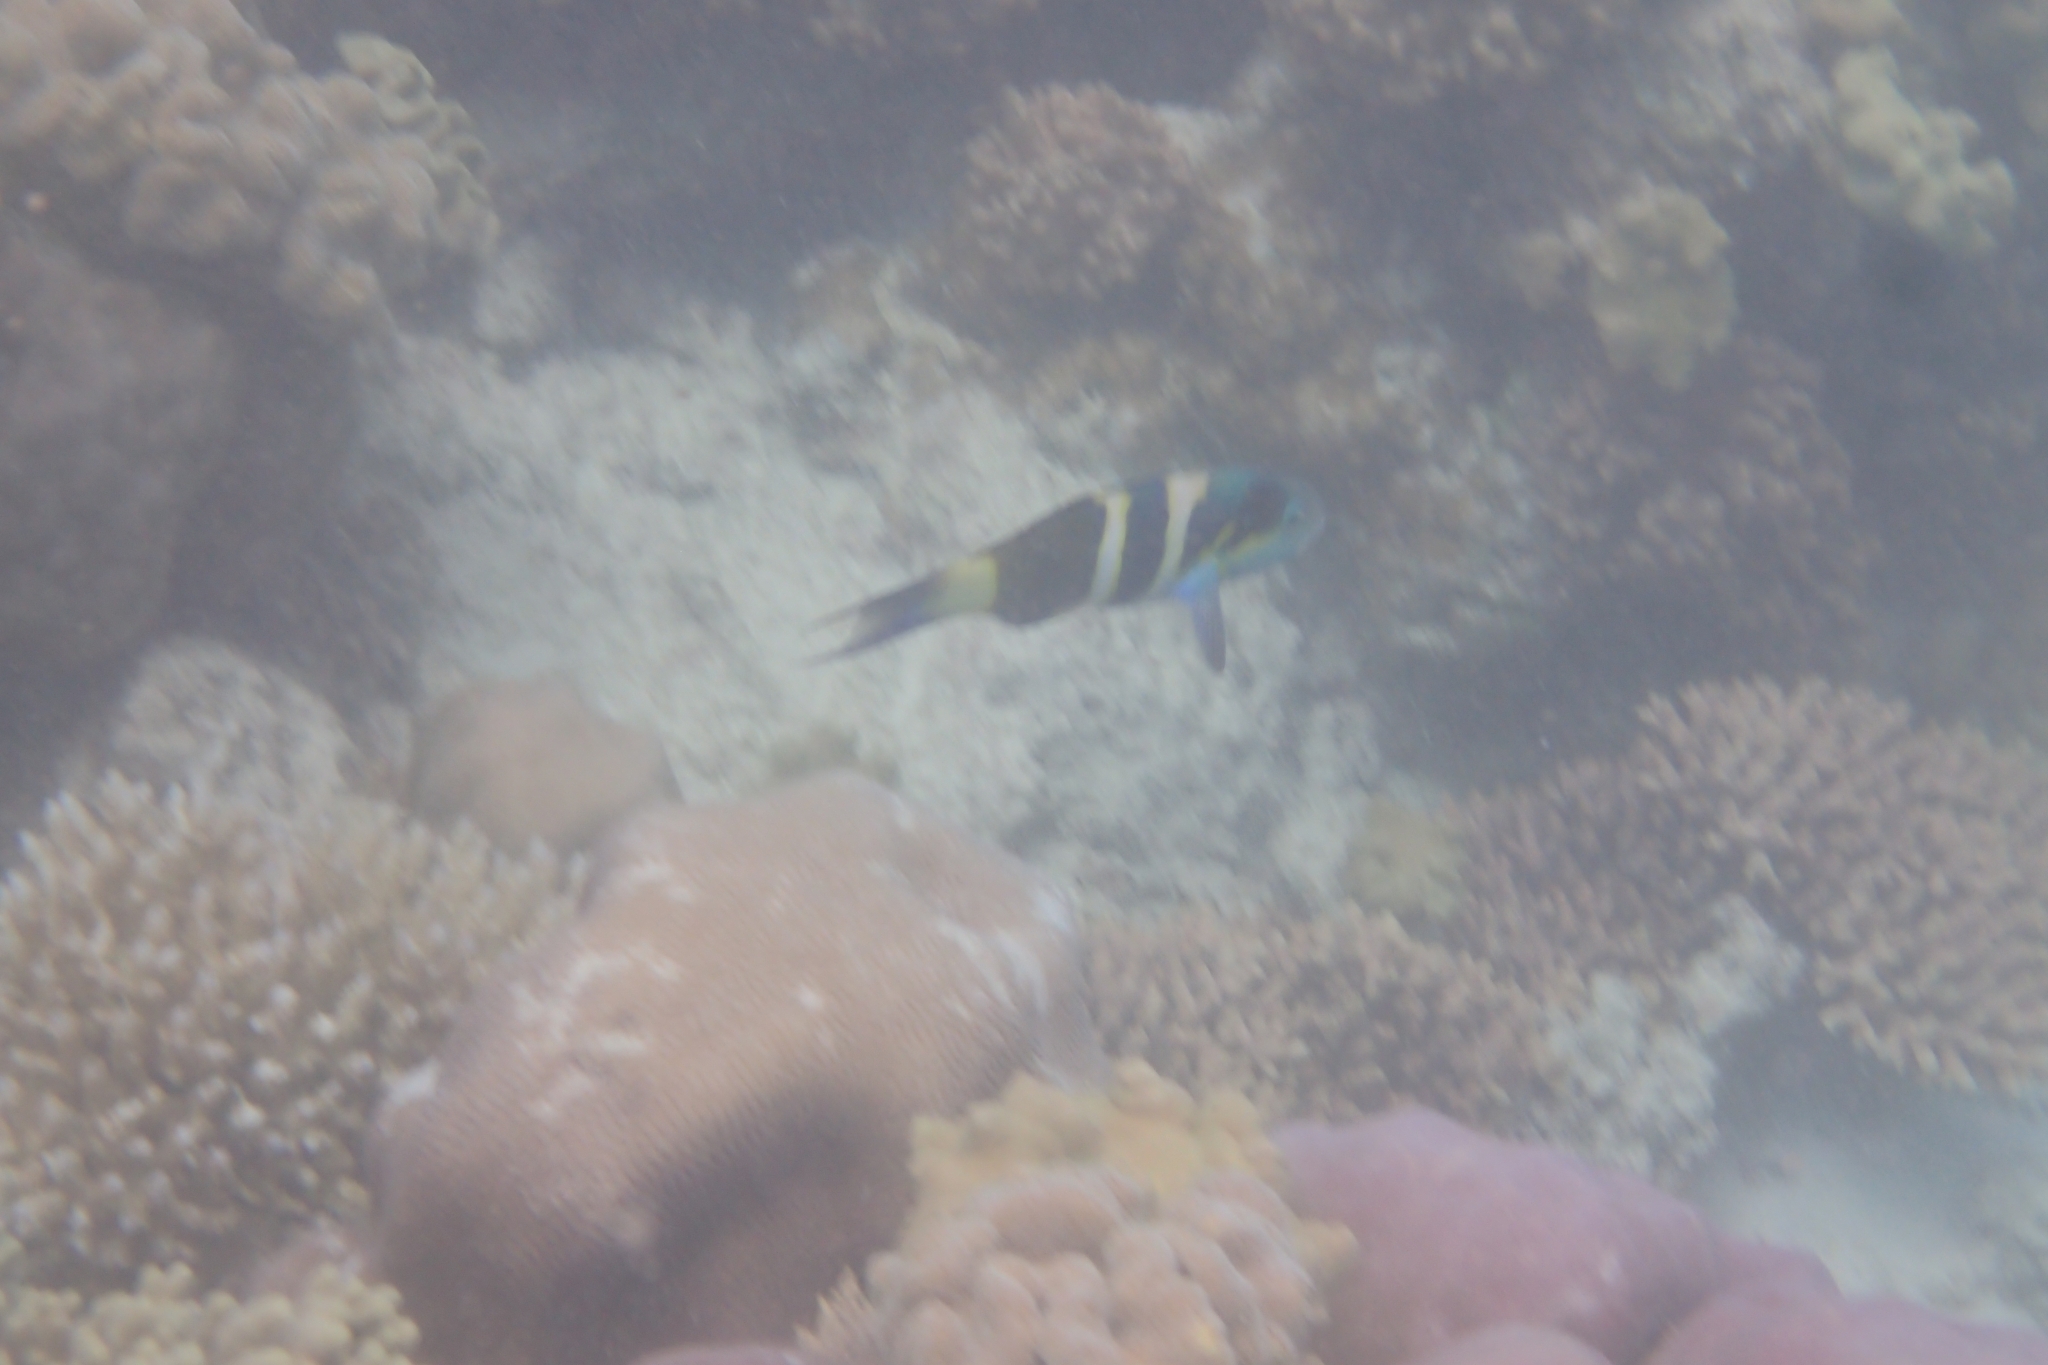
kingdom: Animalia
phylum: Chordata
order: Perciformes
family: Labridae
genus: Thalassoma
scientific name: Thalassoma nigrofasciatum
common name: Black-barred wrasse
